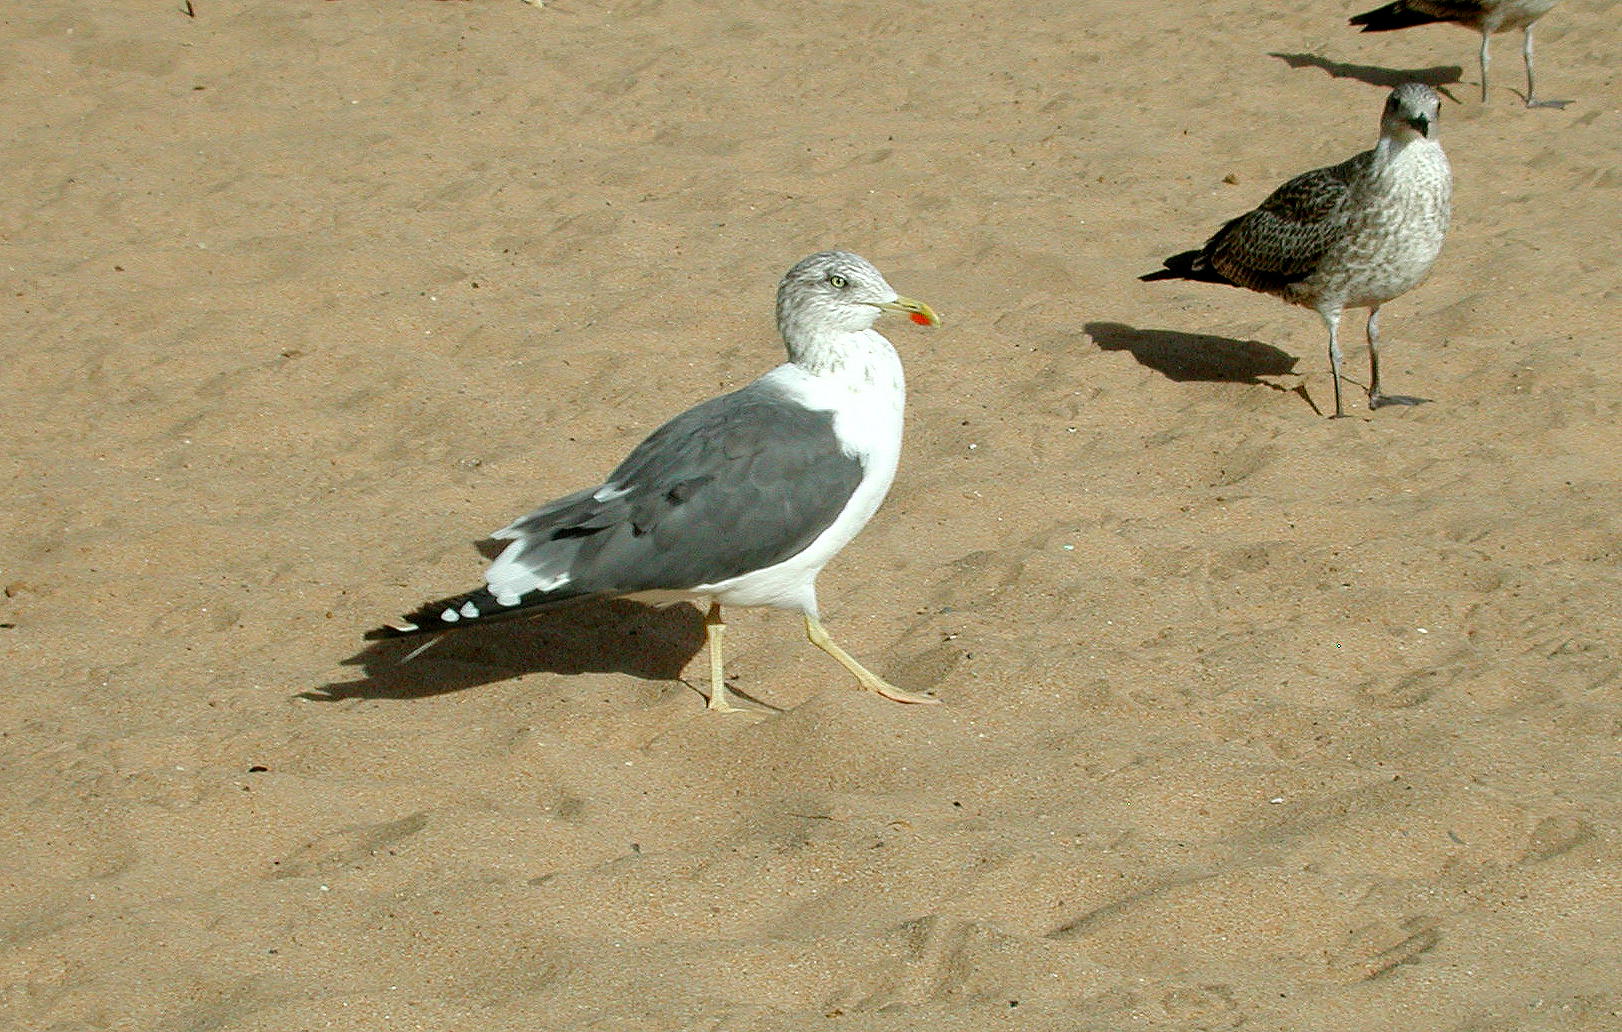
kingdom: Animalia
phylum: Chordata
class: Aves
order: Charadriiformes
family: Laridae
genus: Larus
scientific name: Larus fuscus
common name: Lesser black-backed gull
